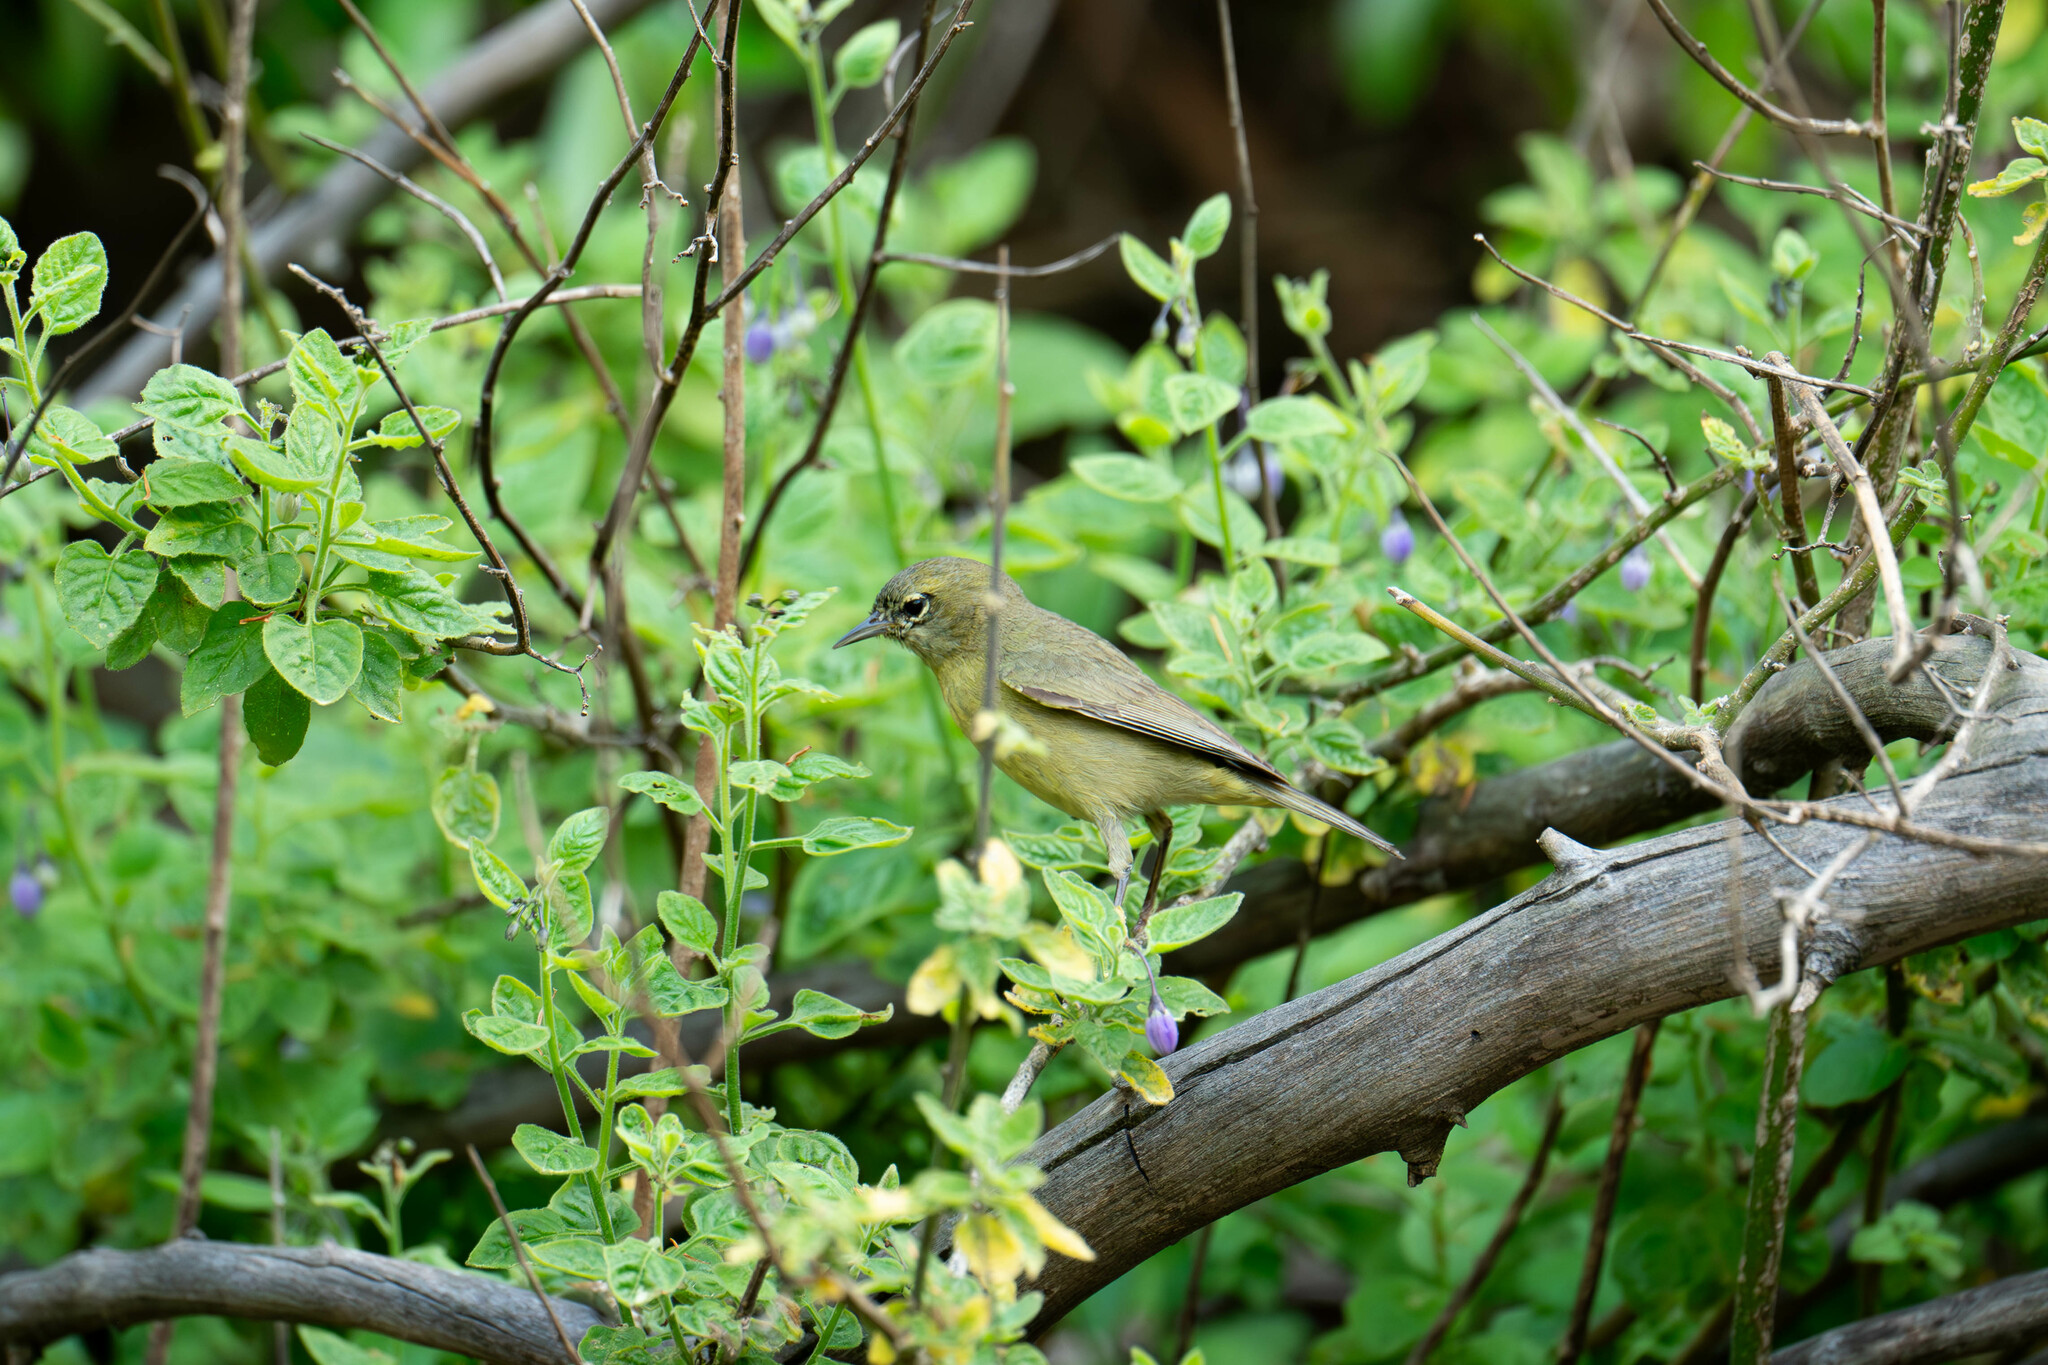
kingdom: Animalia
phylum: Chordata
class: Aves
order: Passeriformes
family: Parulidae
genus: Leiothlypis
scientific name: Leiothlypis celata
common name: Orange-crowned warbler
